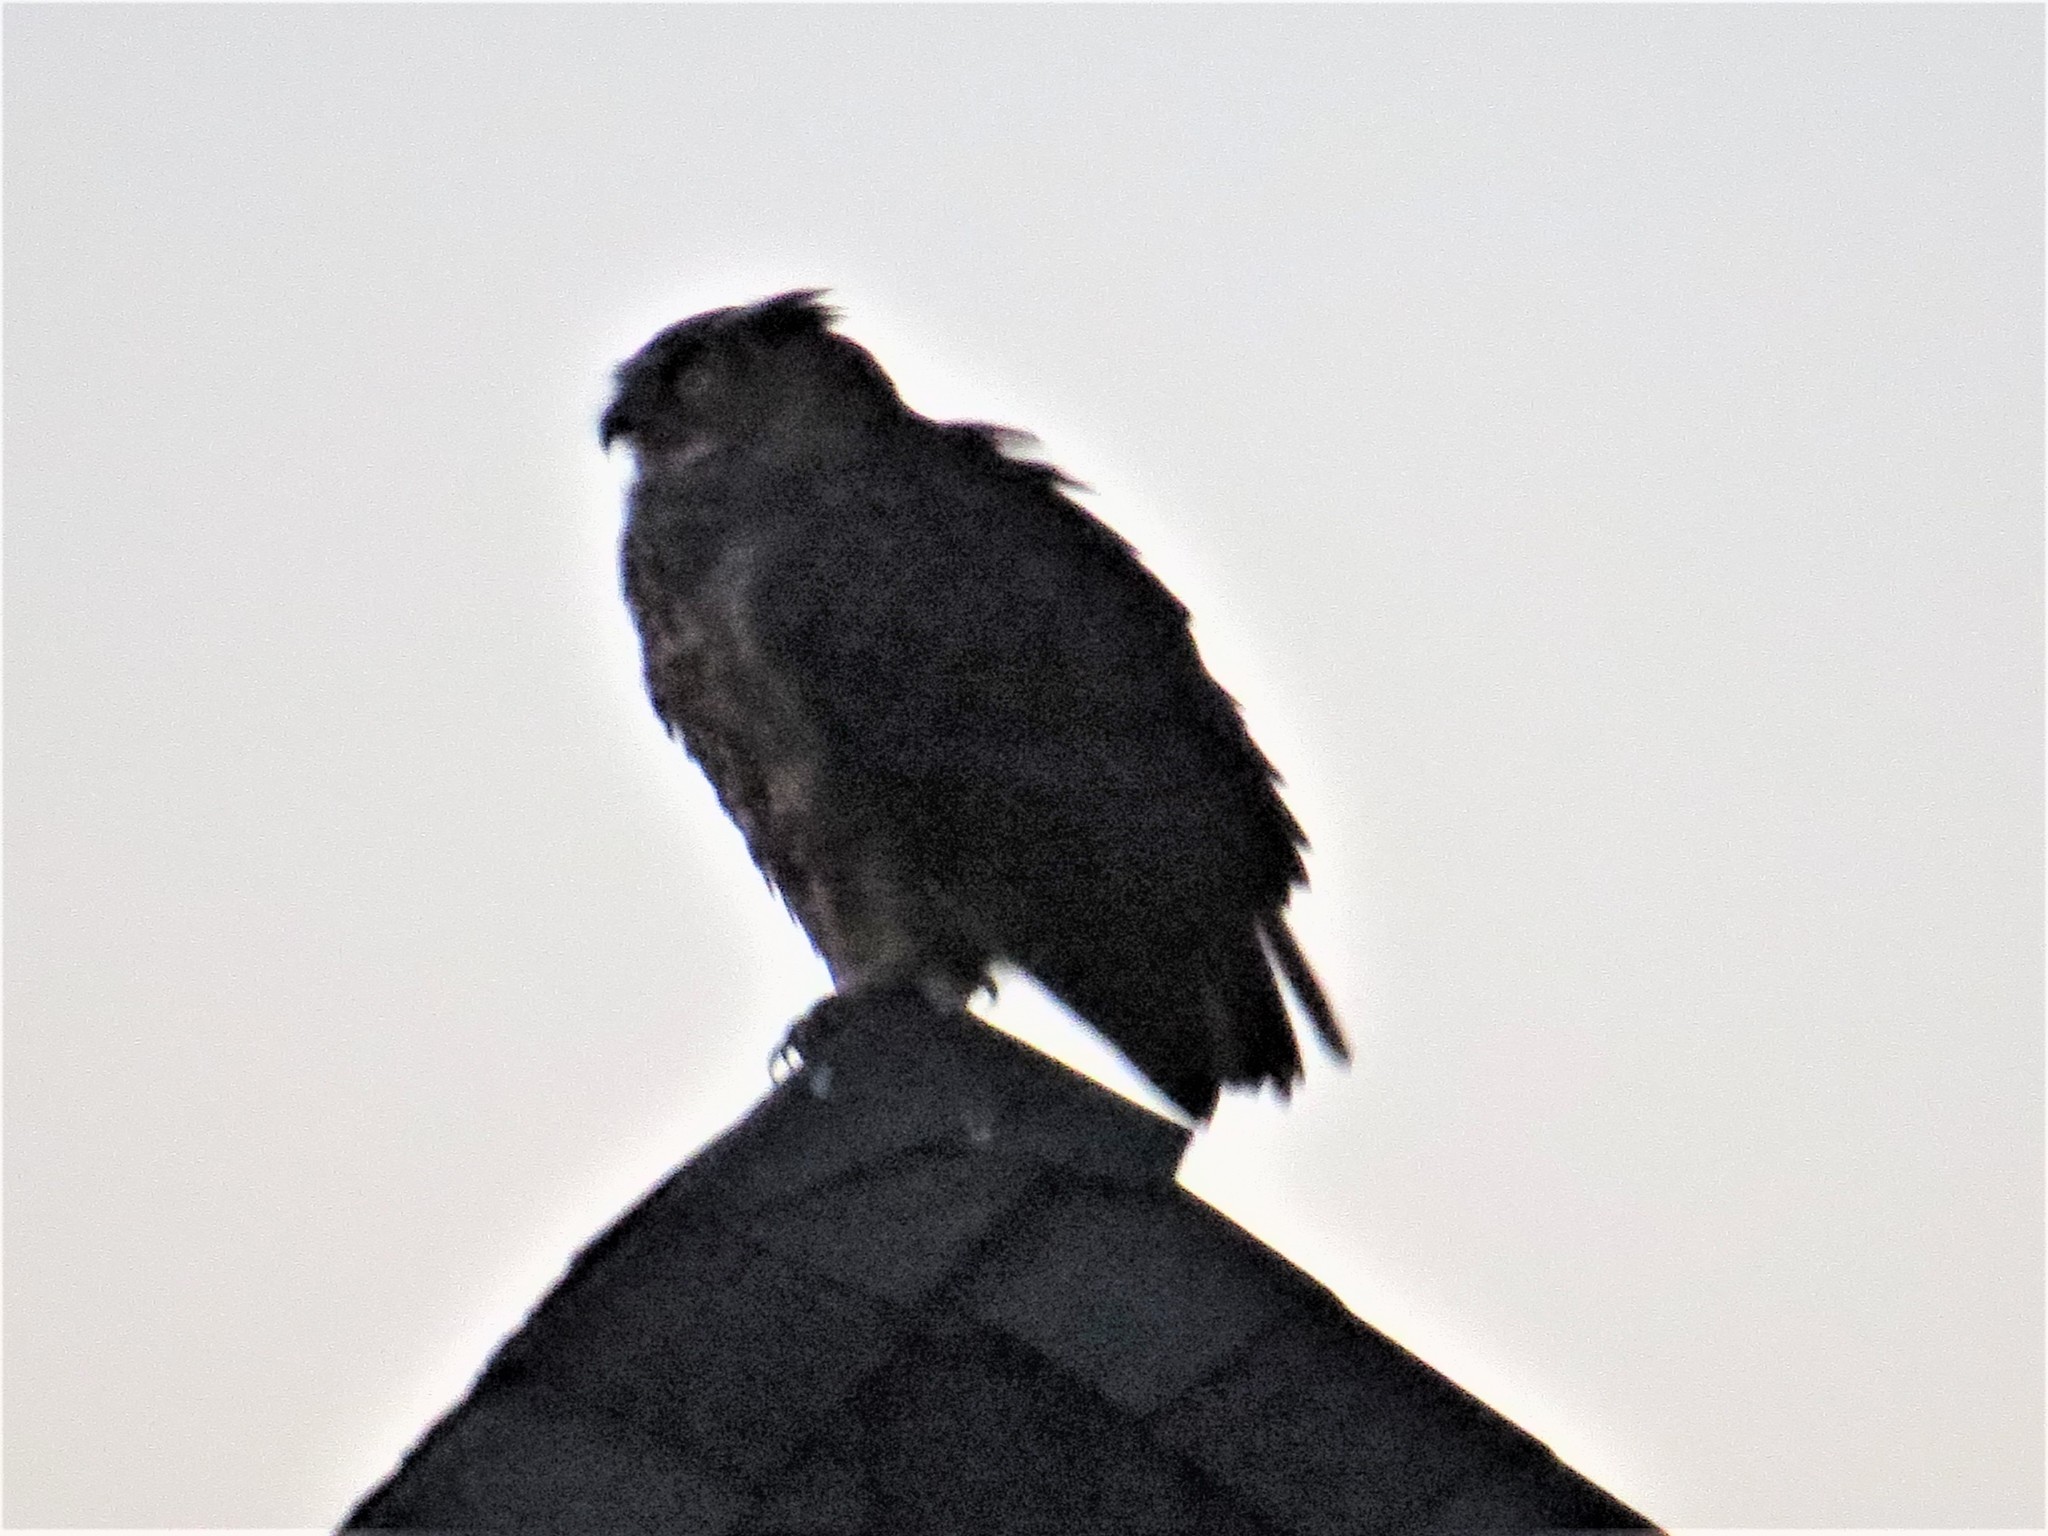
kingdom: Animalia
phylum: Chordata
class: Aves
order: Strigiformes
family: Strigidae
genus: Bubo
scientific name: Bubo virginianus
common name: Great horned owl
